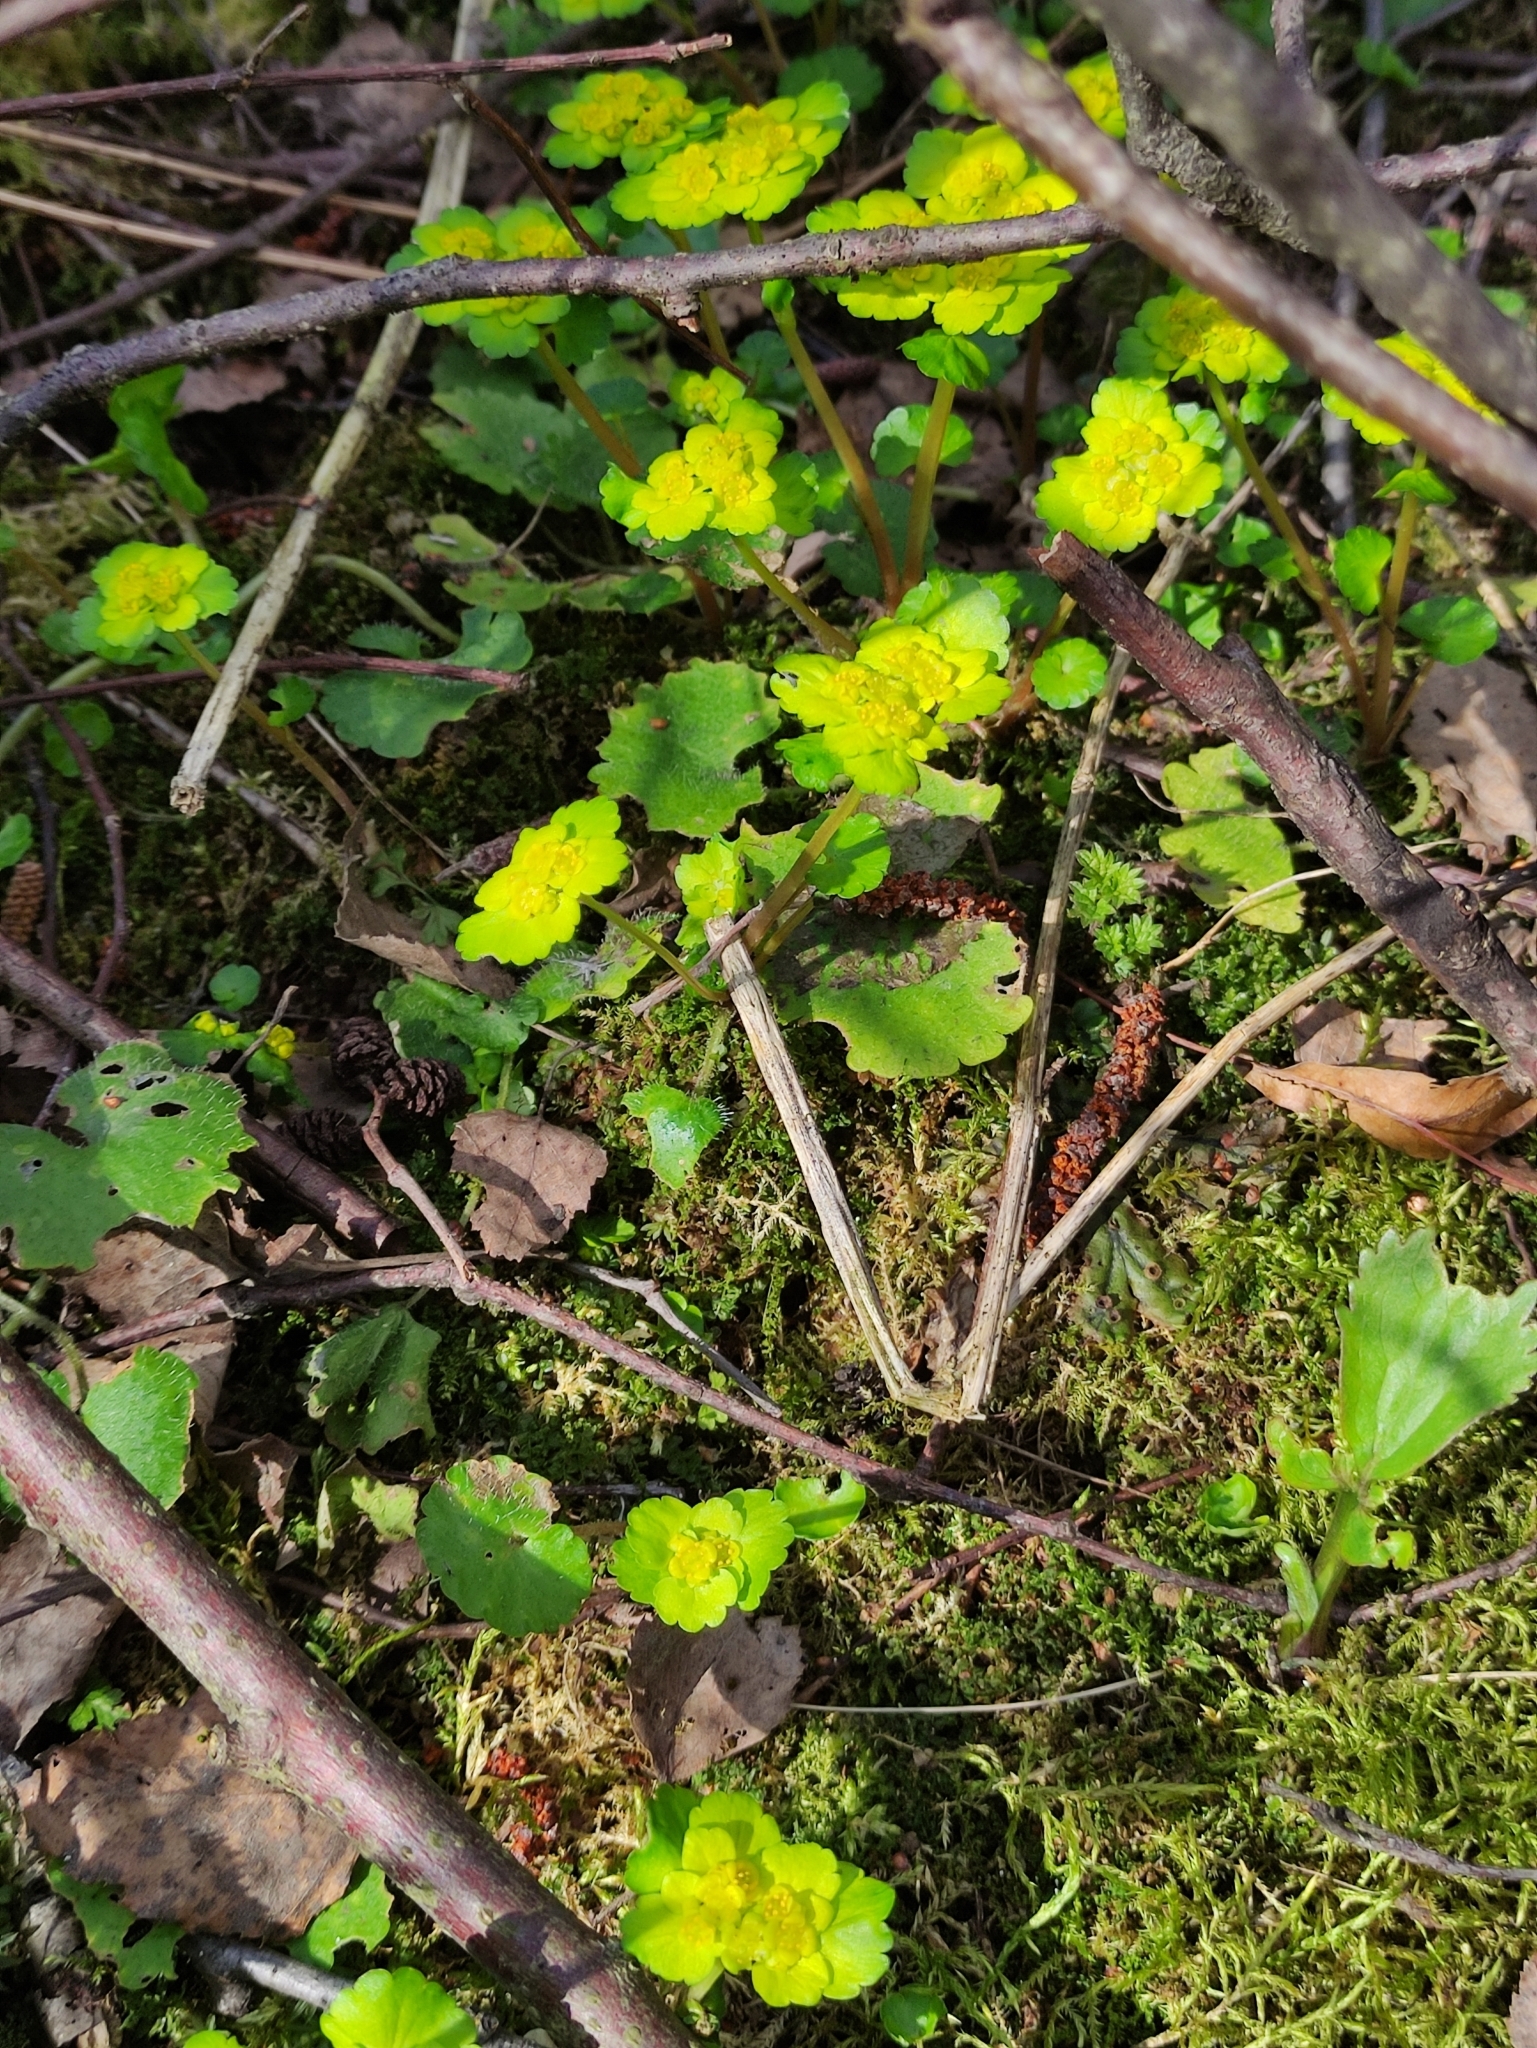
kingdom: Plantae
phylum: Tracheophyta
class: Magnoliopsida
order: Saxifragales
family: Saxifragaceae
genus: Chrysosplenium
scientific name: Chrysosplenium alternifolium
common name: Alternate-leaved golden-saxifrage
